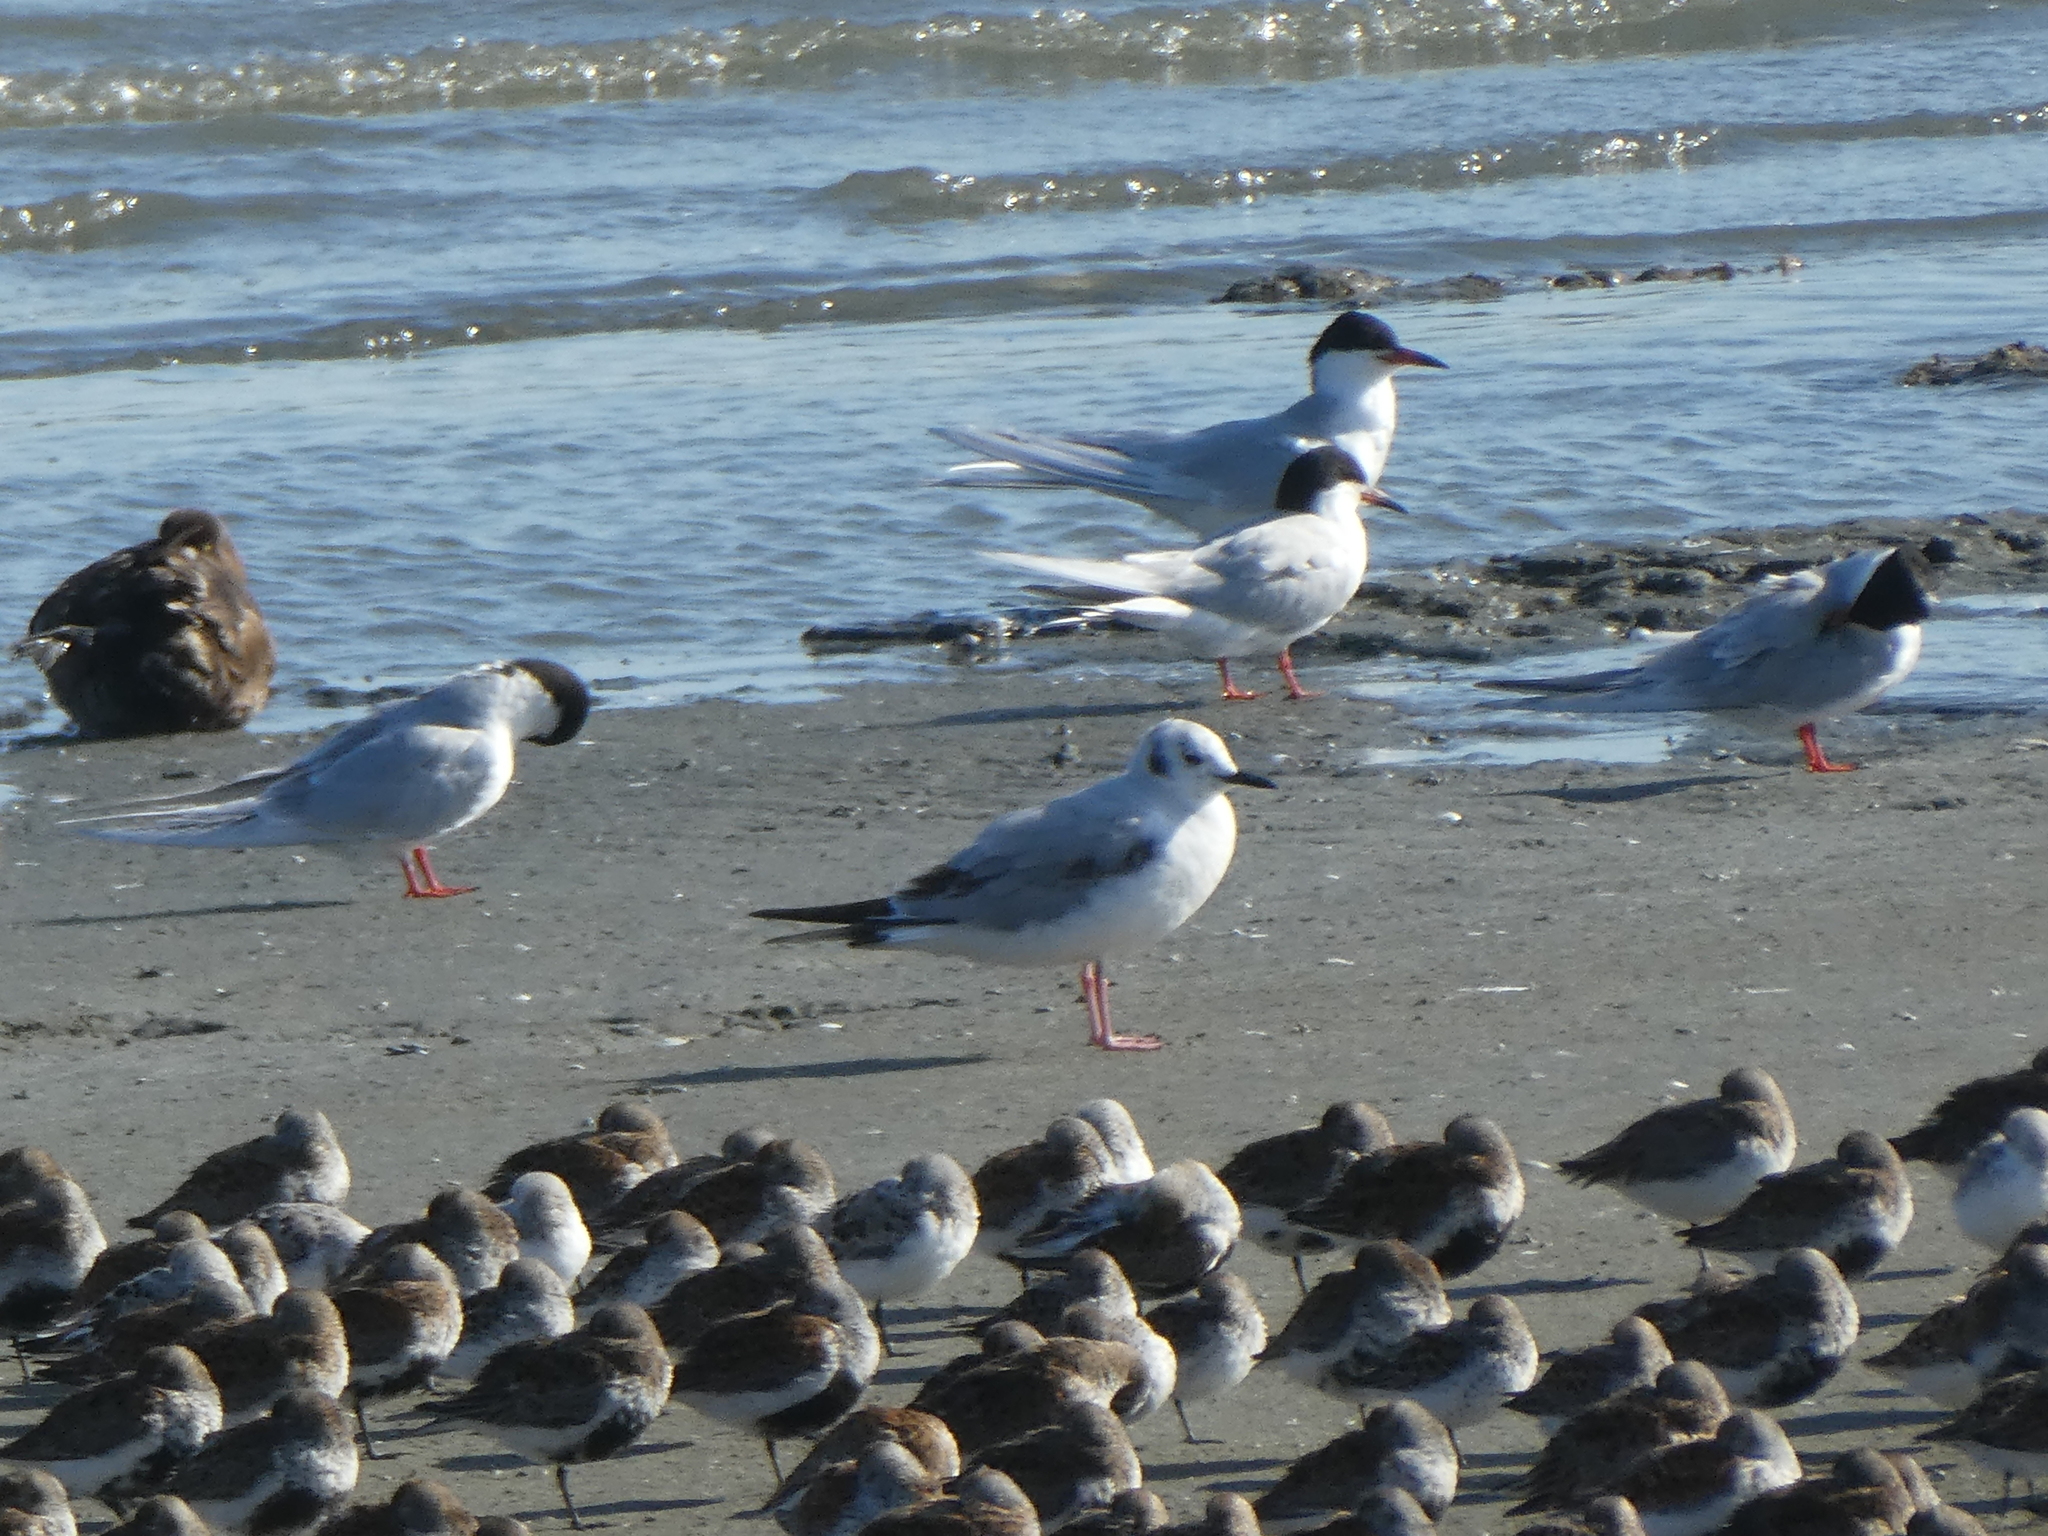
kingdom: Animalia
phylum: Chordata
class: Aves
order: Charadriiformes
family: Laridae
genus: Chroicocephalus
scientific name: Chroicocephalus philadelphia
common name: Bonaparte's gull
